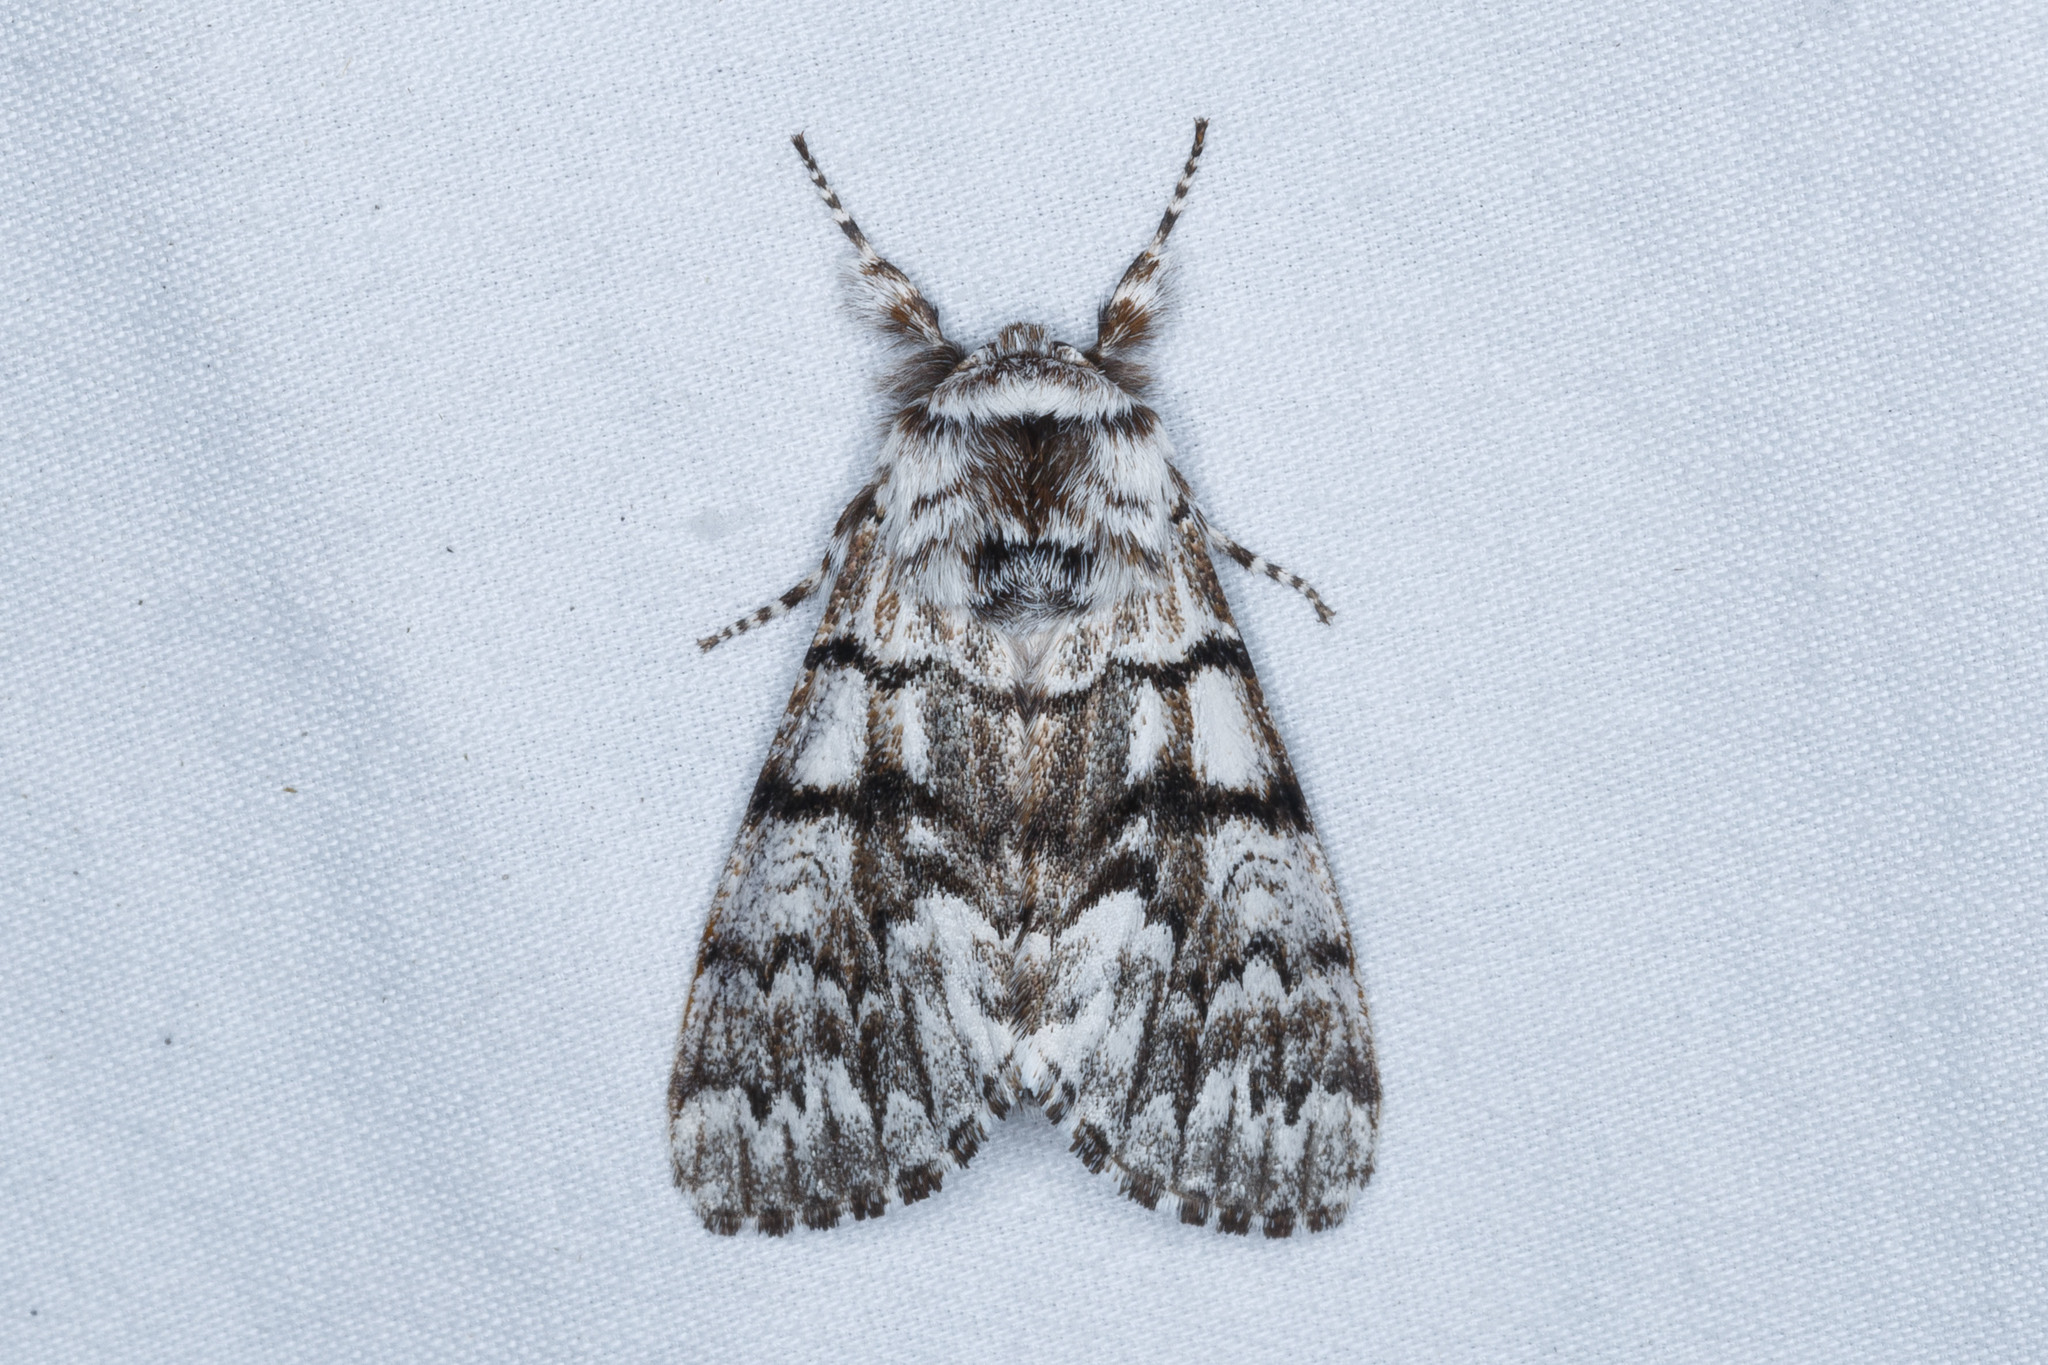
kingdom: Animalia
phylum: Arthropoda
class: Insecta
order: Lepidoptera
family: Noctuidae
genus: Panthea
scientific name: Panthea virginarius
